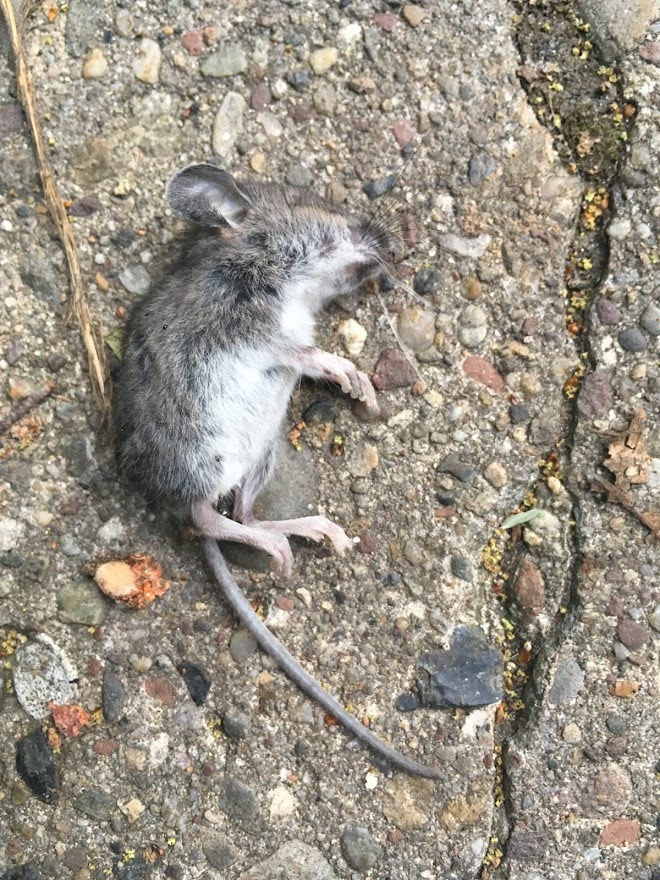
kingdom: Animalia
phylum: Chordata
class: Mammalia
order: Rodentia
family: Cricetidae
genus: Peromyscus
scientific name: Peromyscus leucopus
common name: White-footed deermouse
